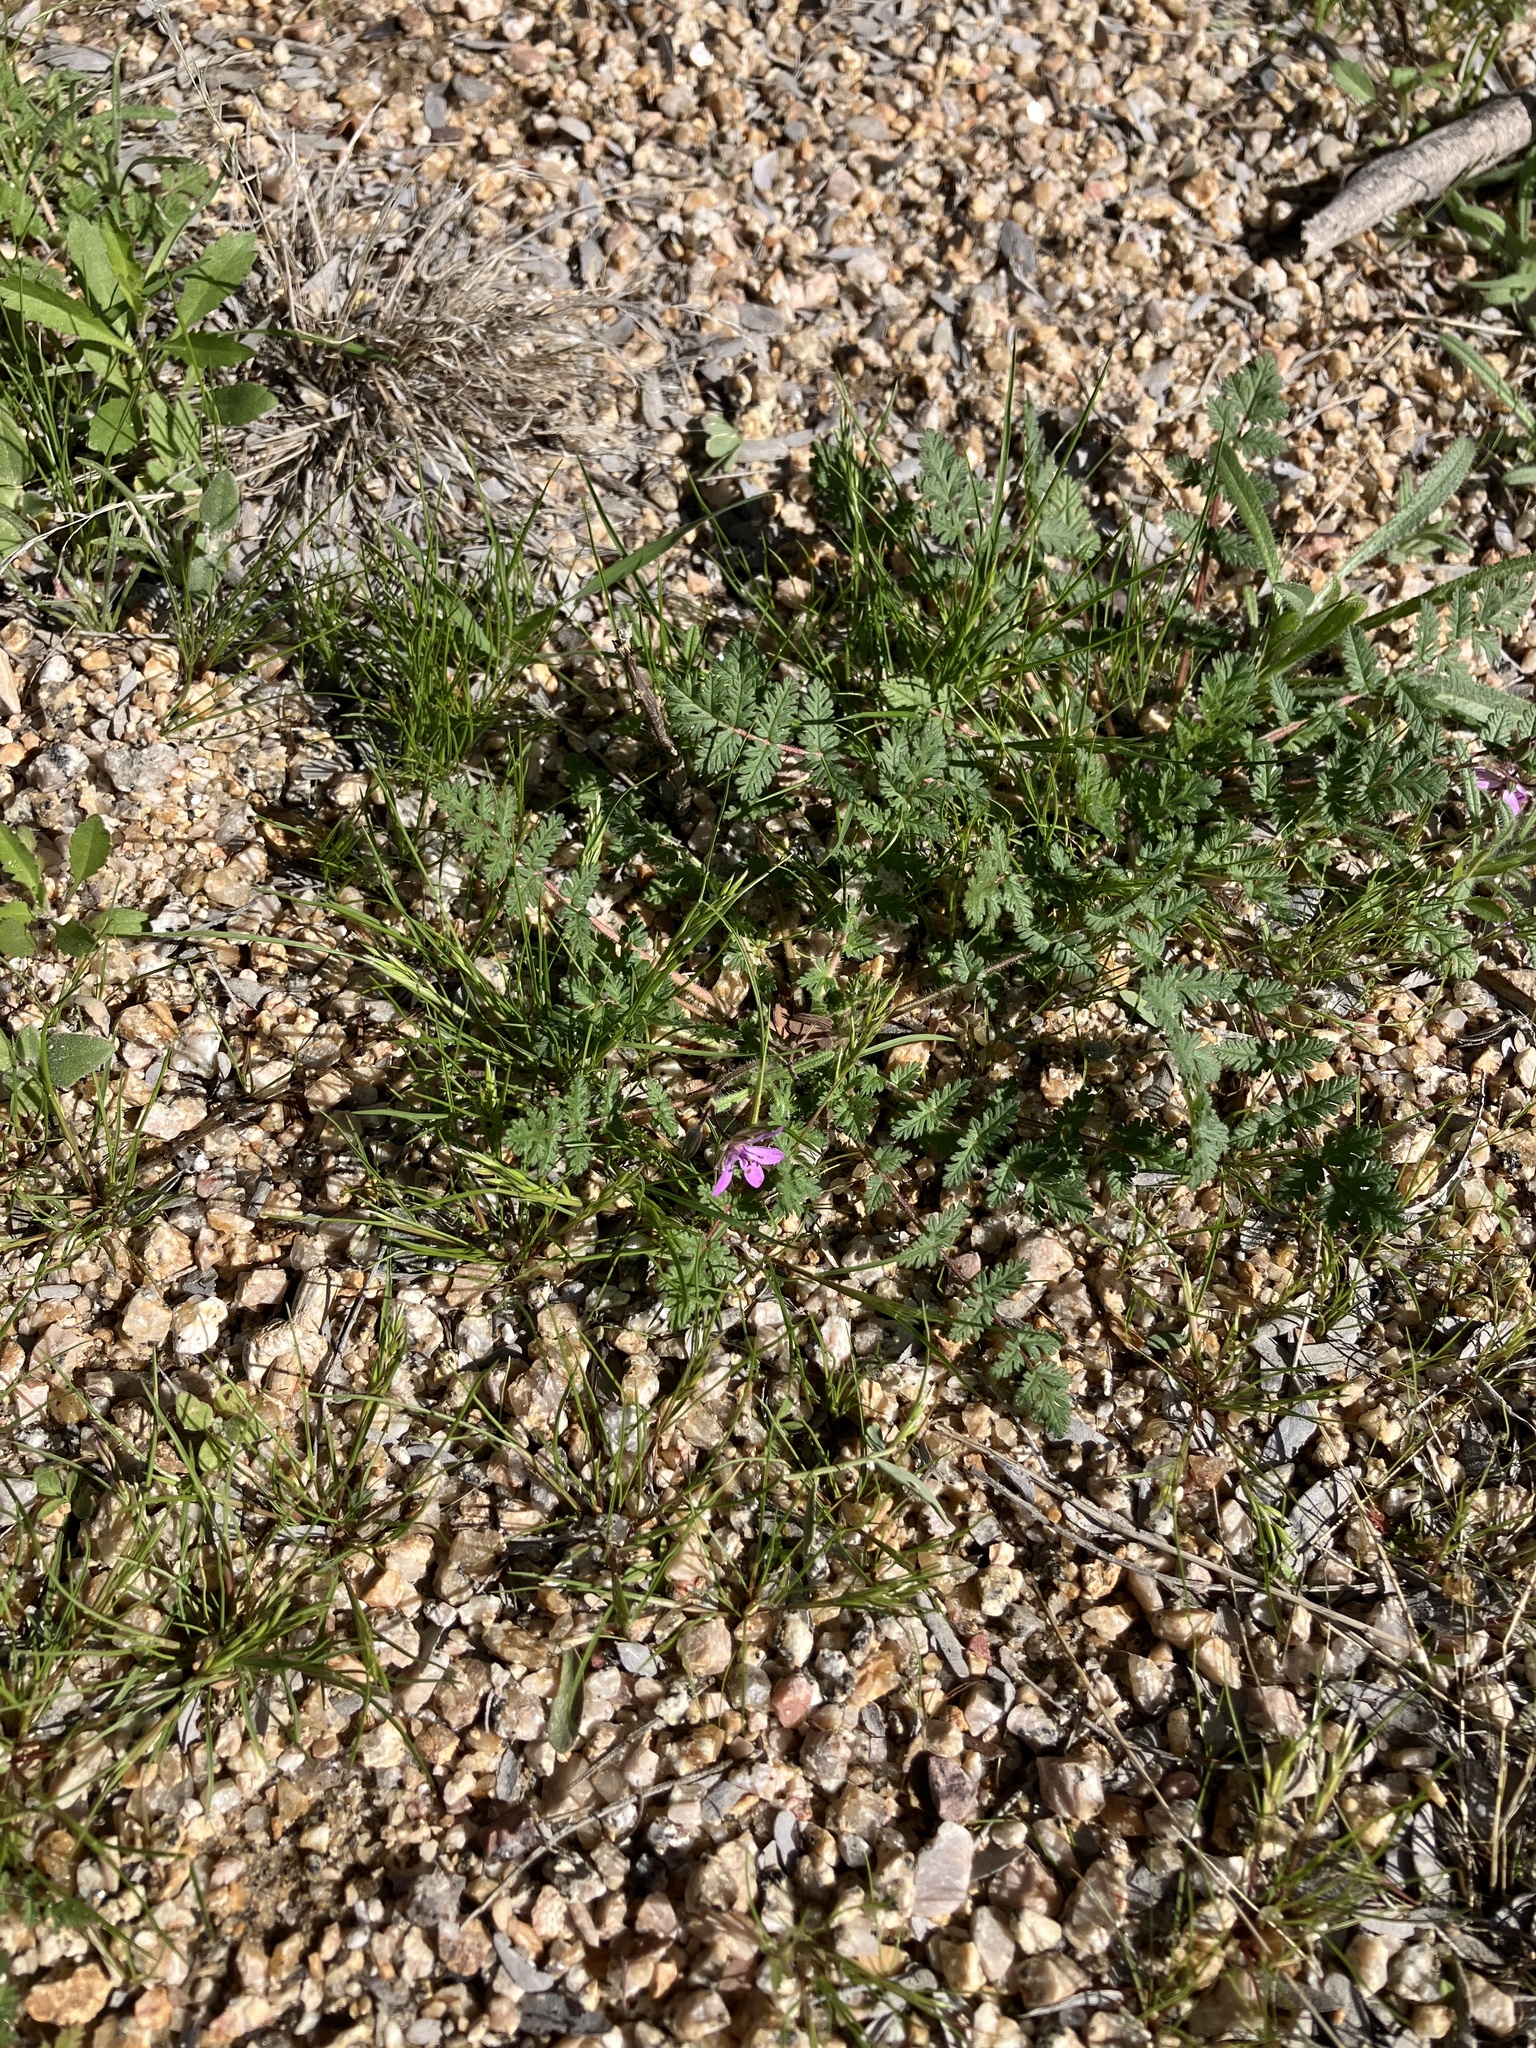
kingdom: Plantae
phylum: Tracheophyta
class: Magnoliopsida
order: Geraniales
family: Geraniaceae
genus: Erodium
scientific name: Erodium cicutarium
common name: Common stork's-bill
